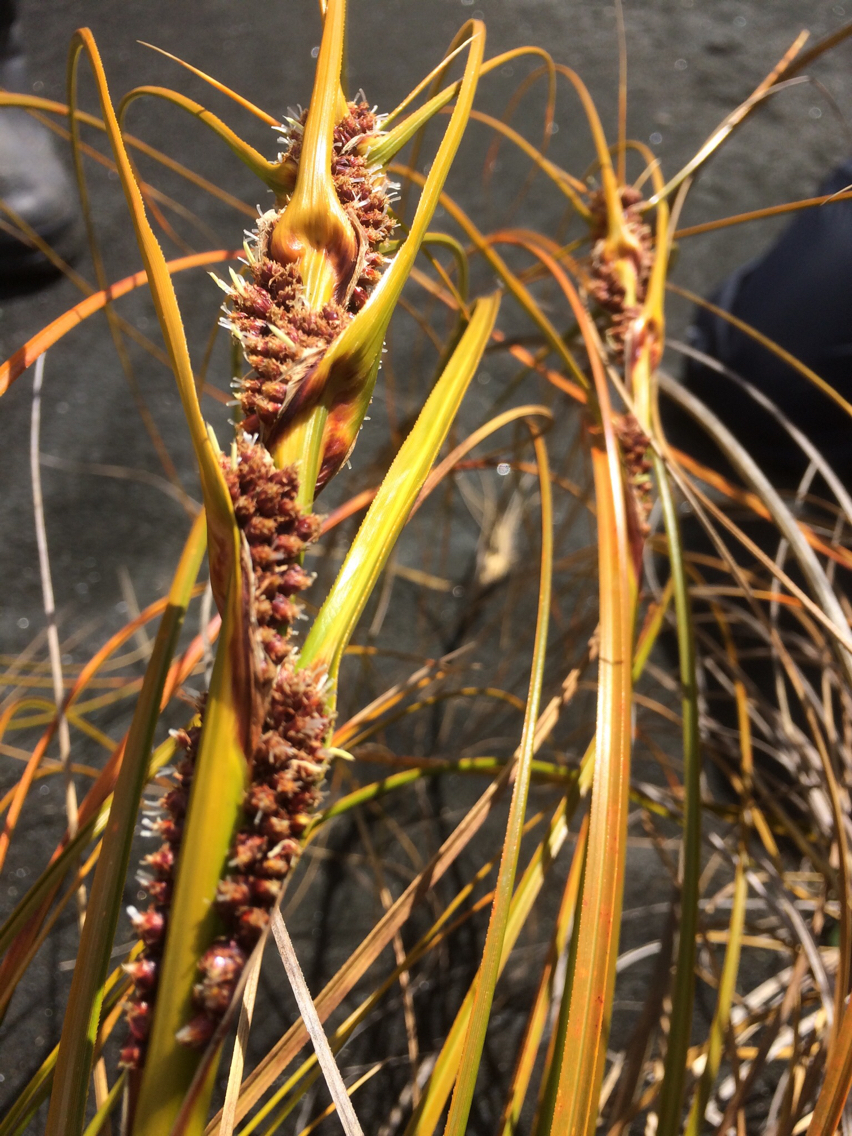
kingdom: Plantae
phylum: Tracheophyta
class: Liliopsida
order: Poales
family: Cyperaceae
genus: Ficinia
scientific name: Ficinia spiralis
